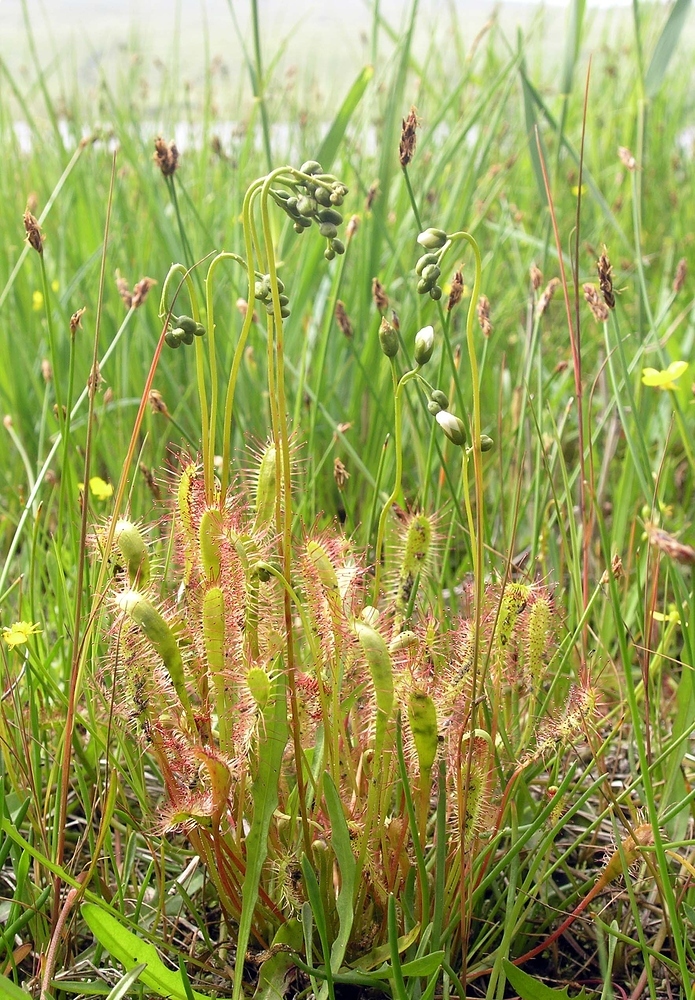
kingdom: Plantae
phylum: Tracheophyta
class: Magnoliopsida
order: Caryophyllales
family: Droseraceae
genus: Drosera
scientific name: Drosera anglica
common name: Great sundew
